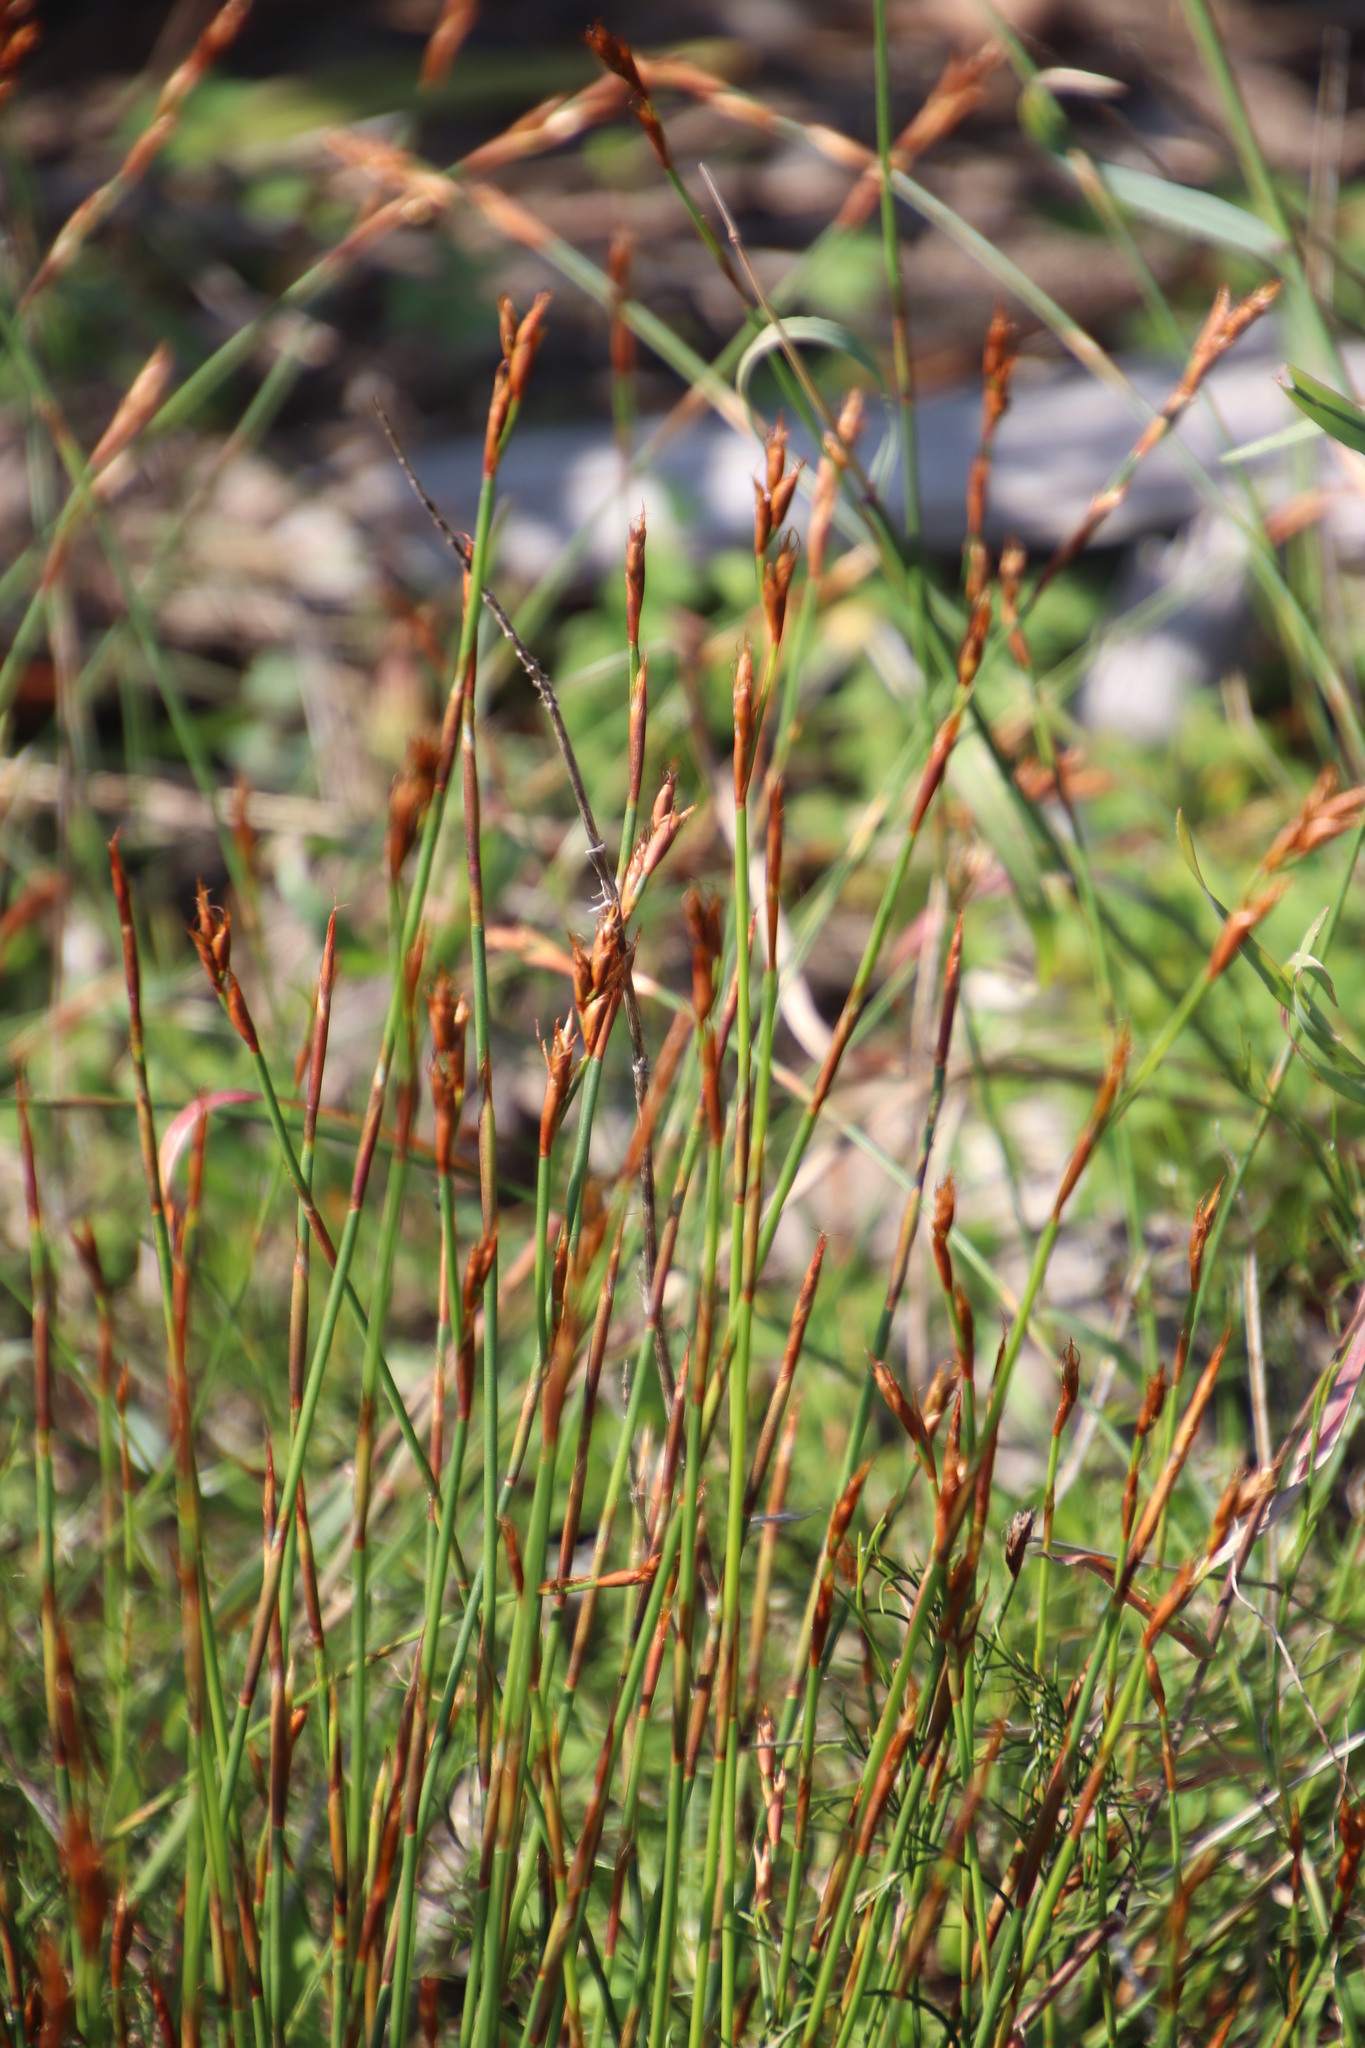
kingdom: Plantae
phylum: Tracheophyta
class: Liliopsida
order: Poales
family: Restionaceae
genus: Restio
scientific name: Restio capensis
